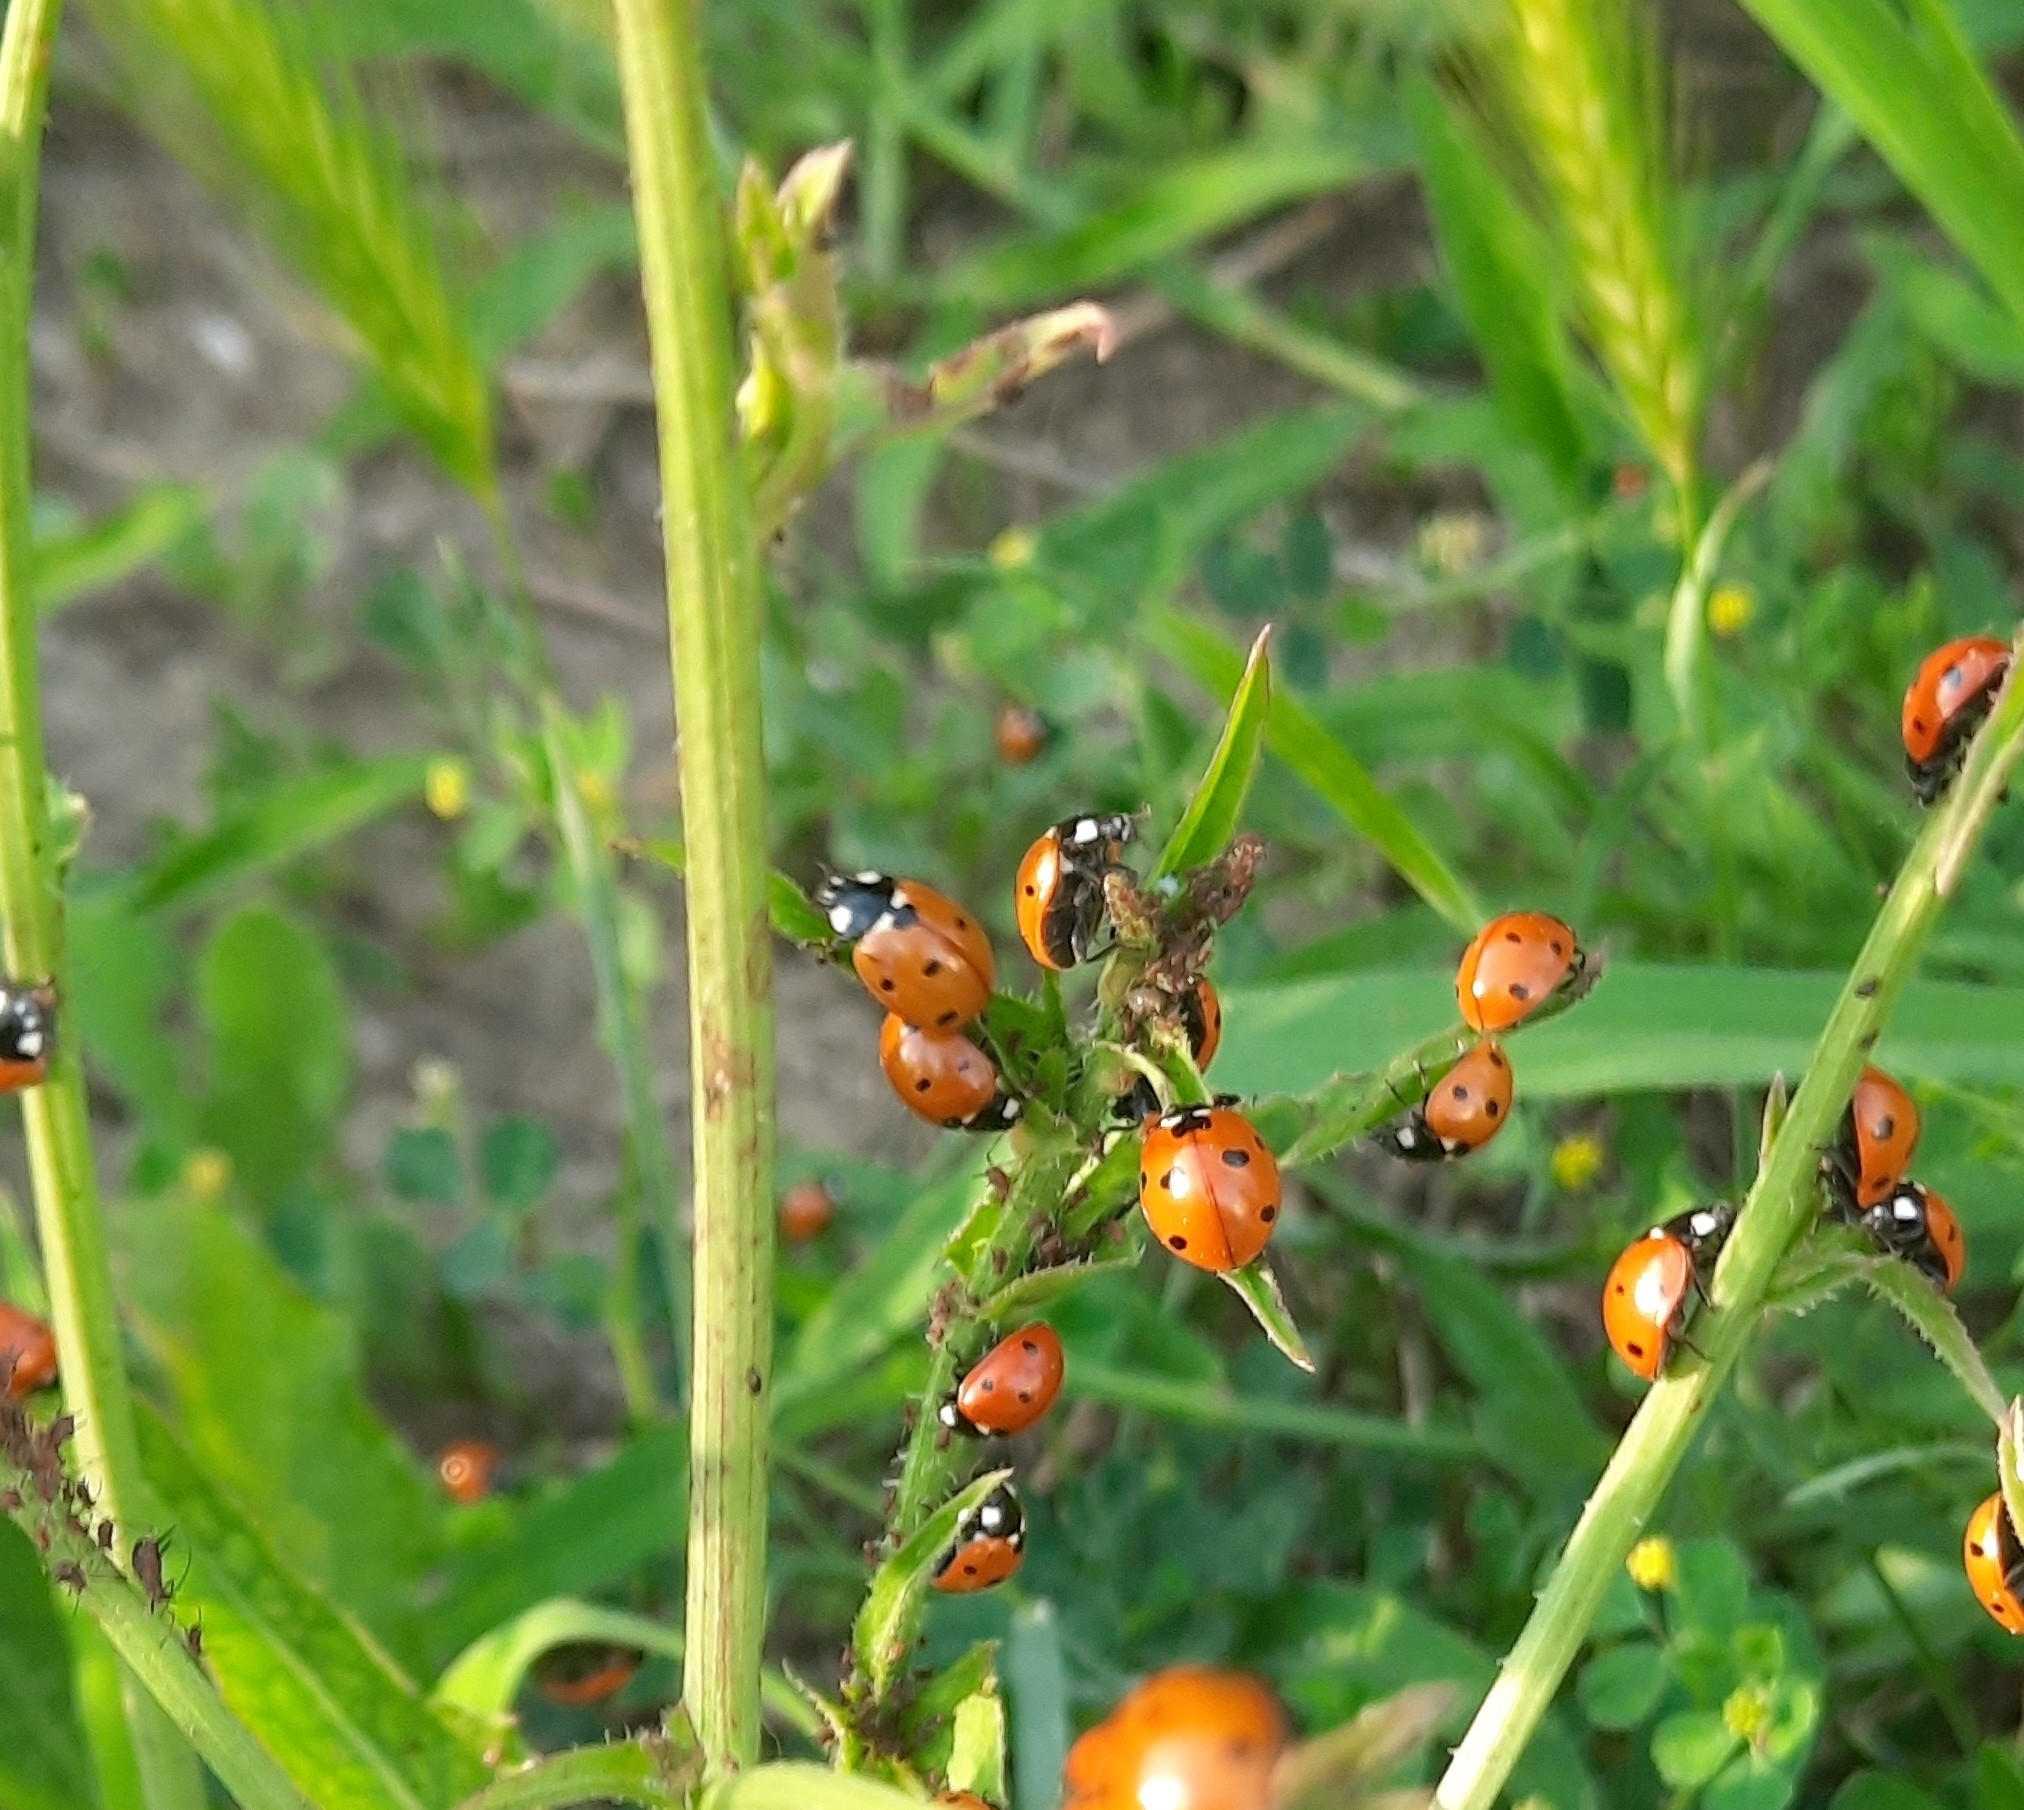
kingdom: Animalia
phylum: Arthropoda
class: Insecta
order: Coleoptera
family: Coccinellidae
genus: Coccinella
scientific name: Coccinella septempunctata
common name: Sevenspotted lady beetle
